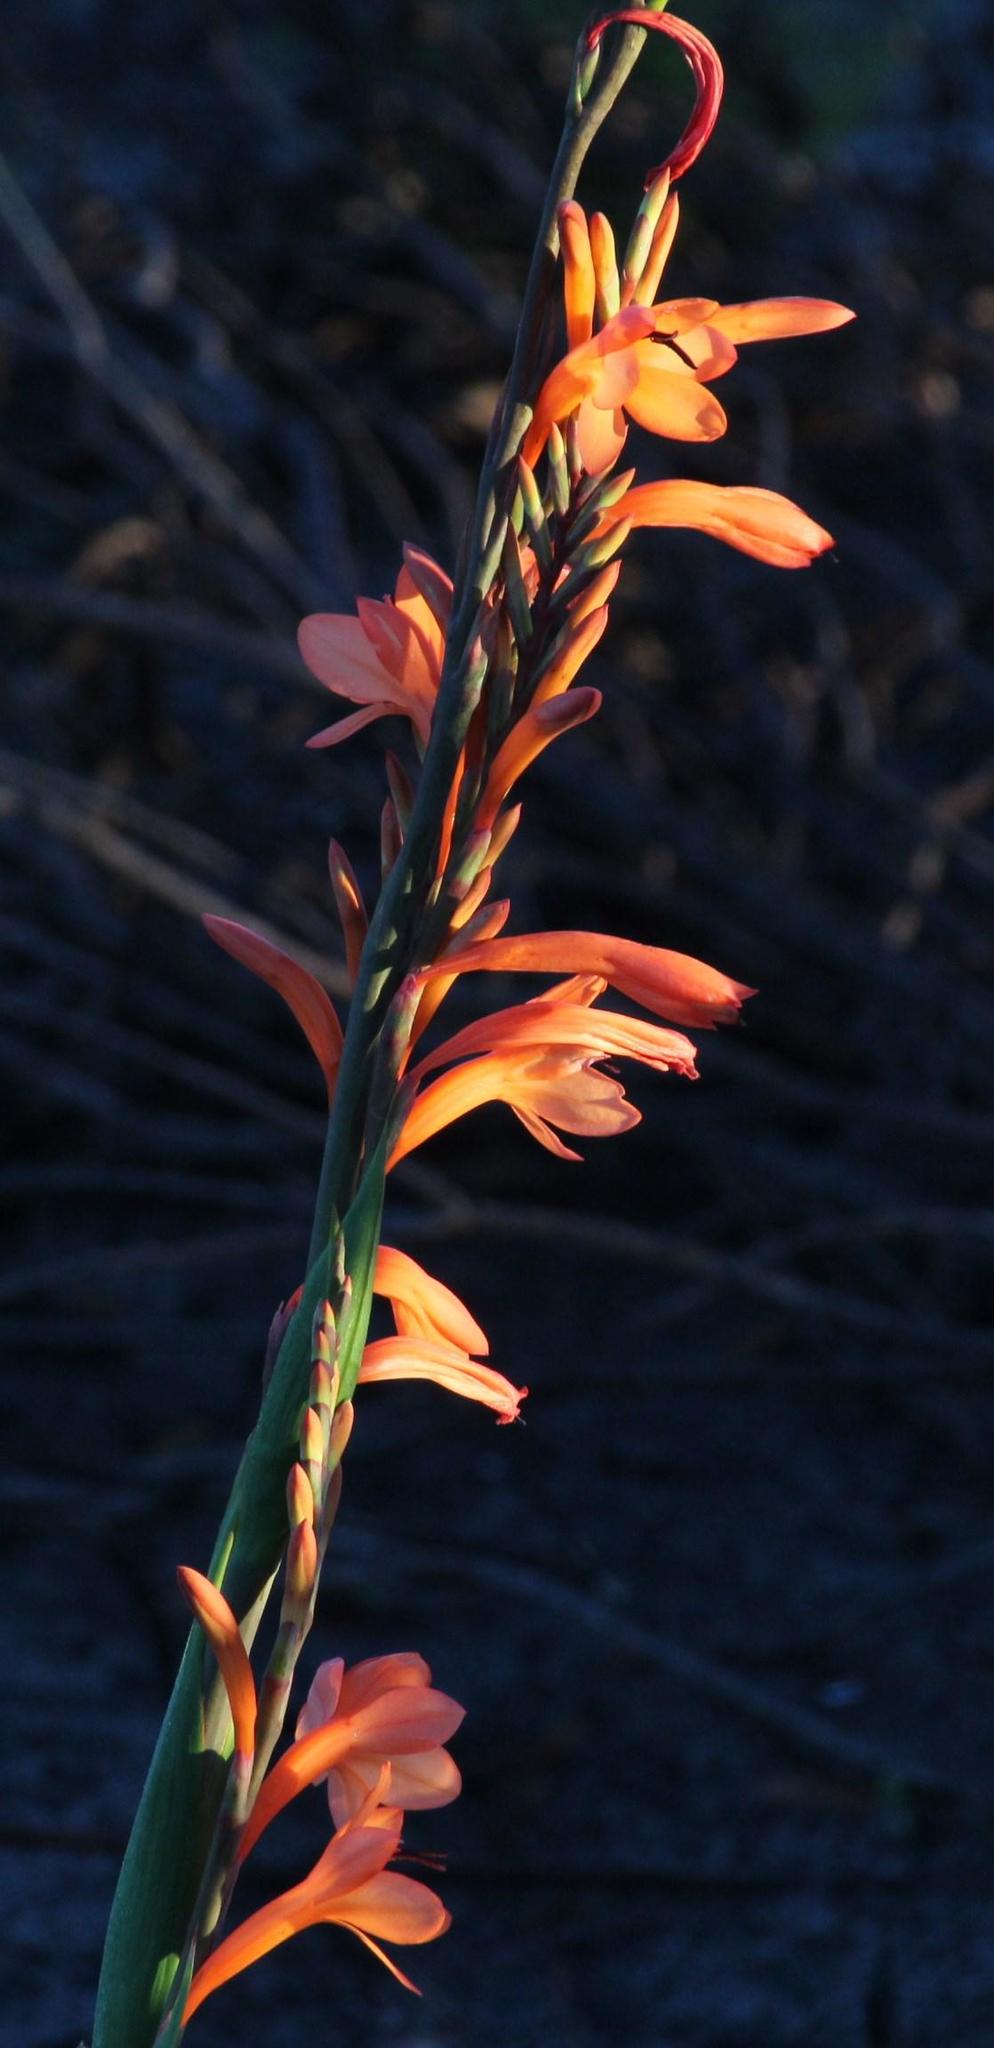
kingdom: Plantae
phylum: Tracheophyta
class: Liliopsida
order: Asparagales
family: Iridaceae
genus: Watsonia
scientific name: Watsonia tabularis
